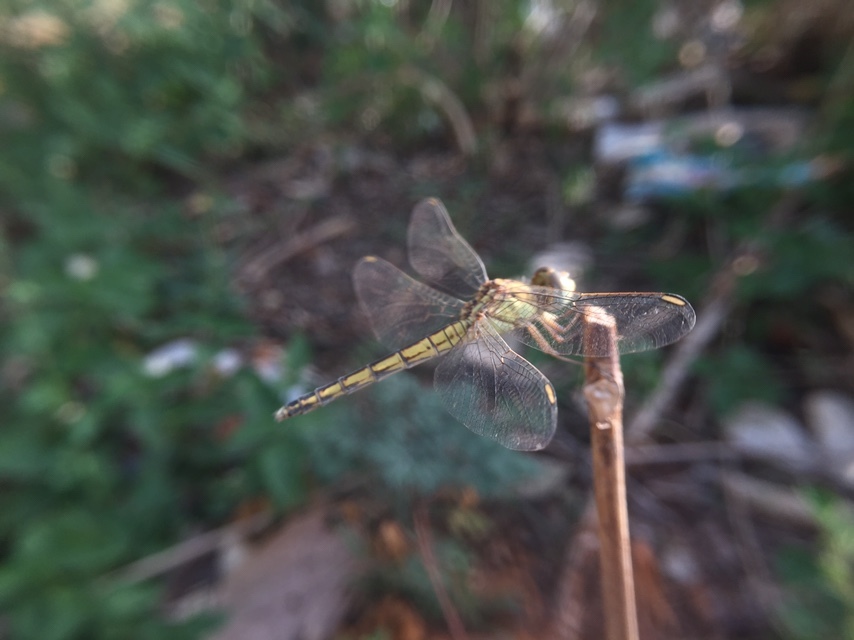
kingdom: Animalia
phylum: Arthropoda
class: Insecta
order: Odonata
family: Libellulidae
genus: Indothemis
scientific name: Indothemis carnatica
